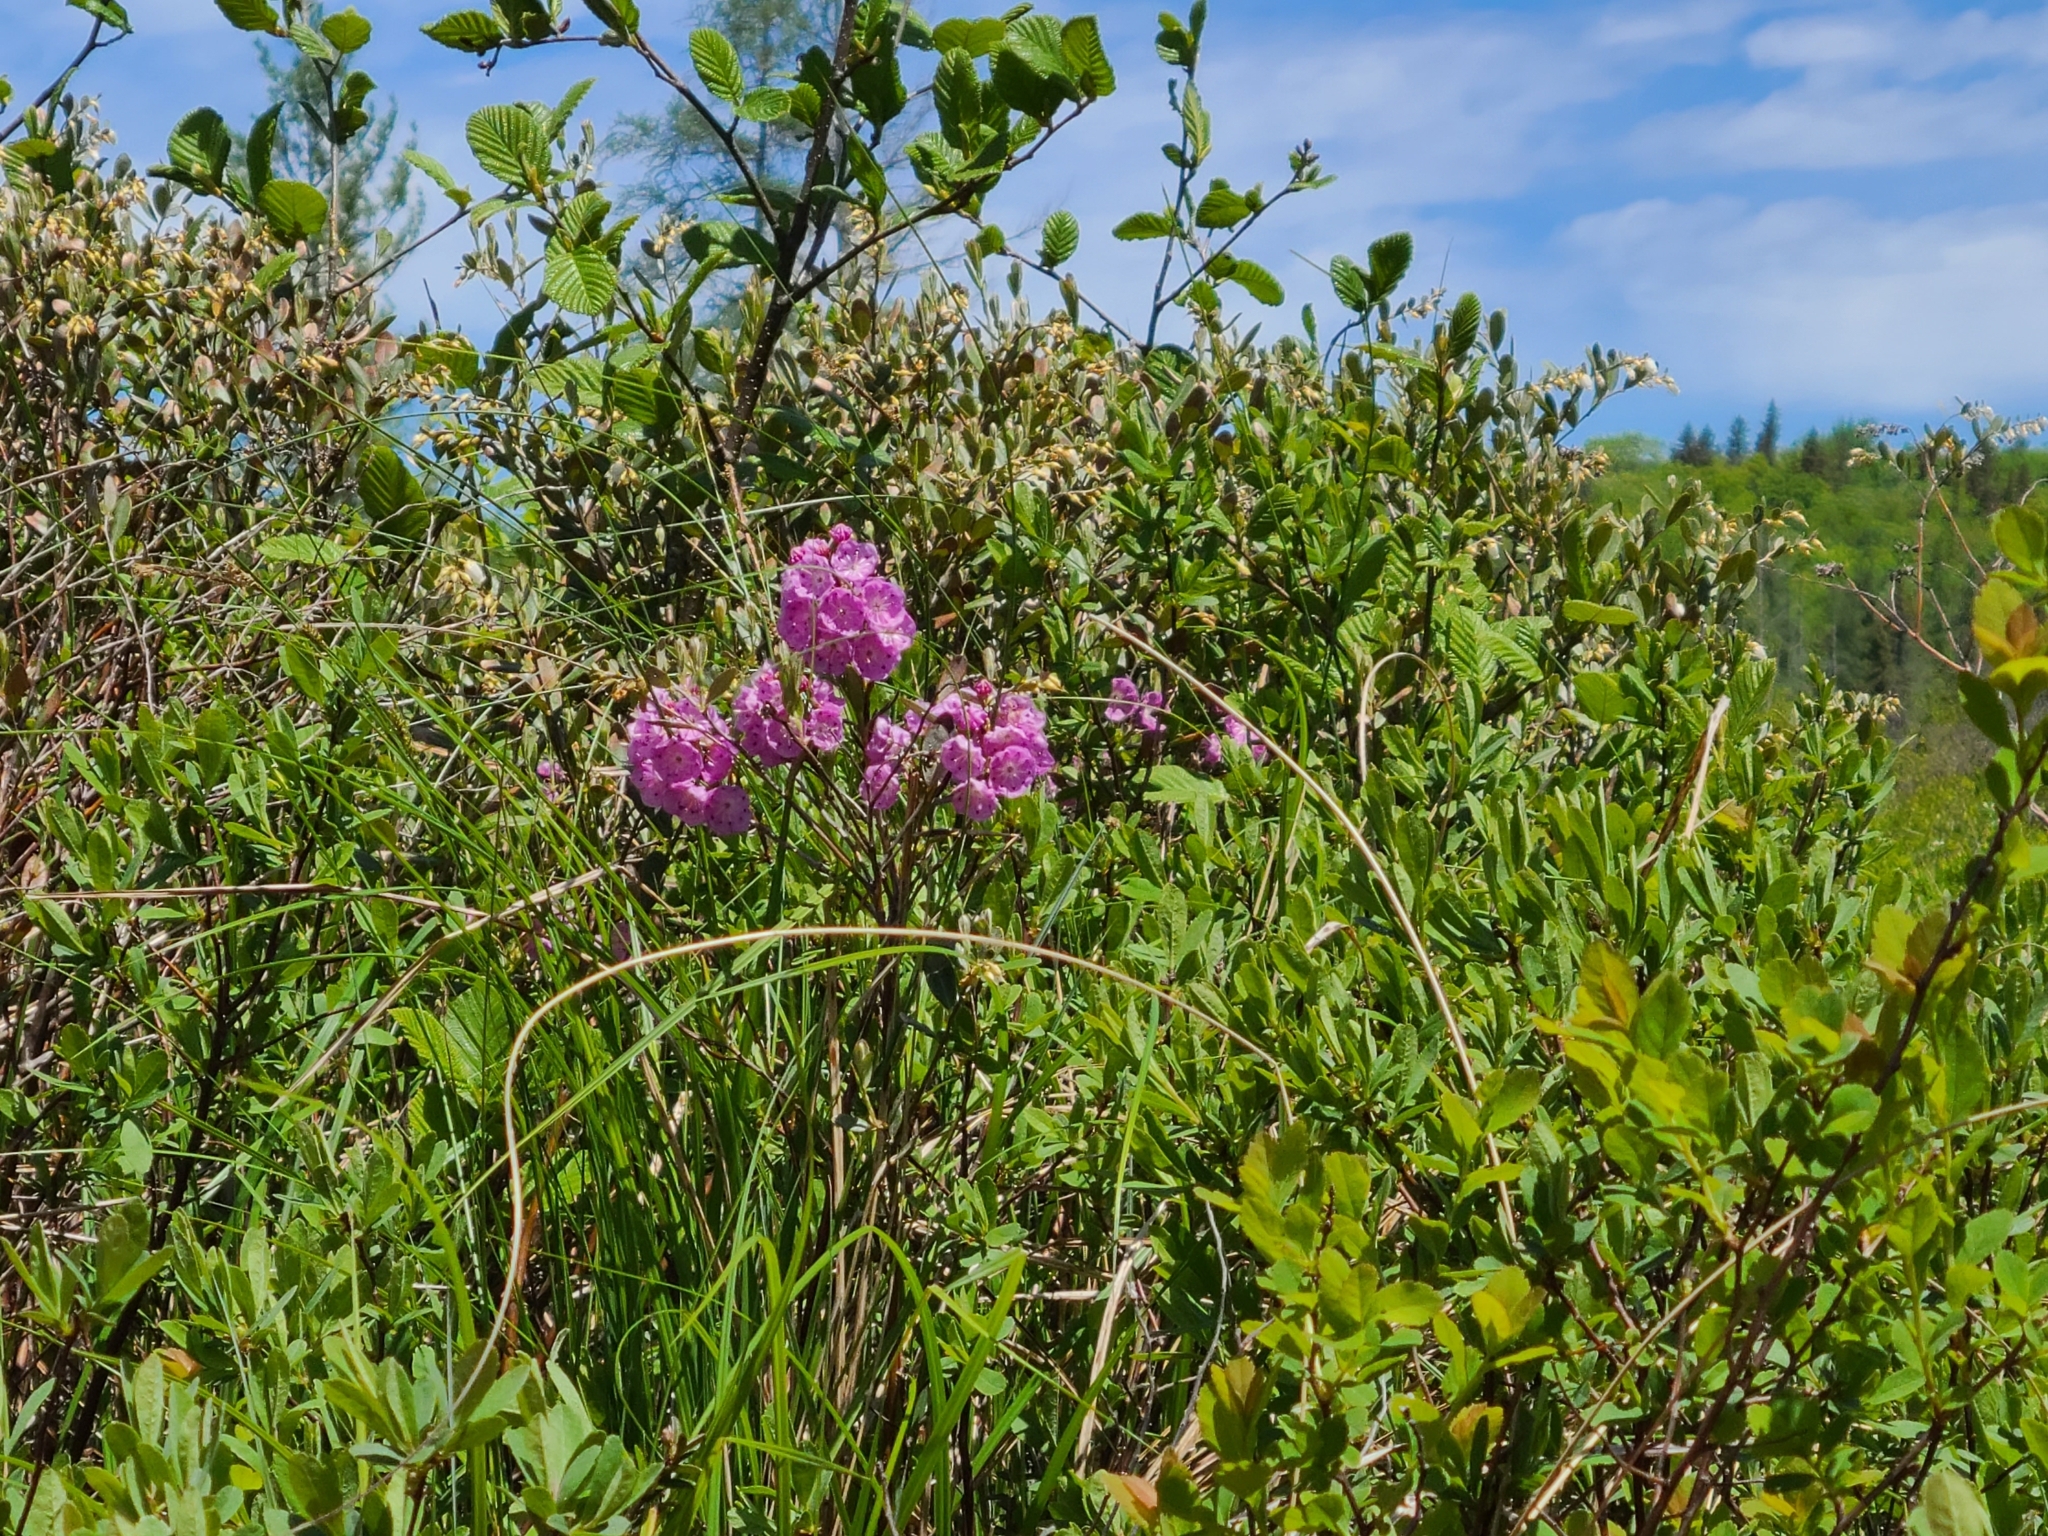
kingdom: Plantae
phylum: Tracheophyta
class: Magnoliopsida
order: Ericales
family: Ericaceae
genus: Kalmia
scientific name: Kalmia angustifolia
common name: Sheep-laurel
